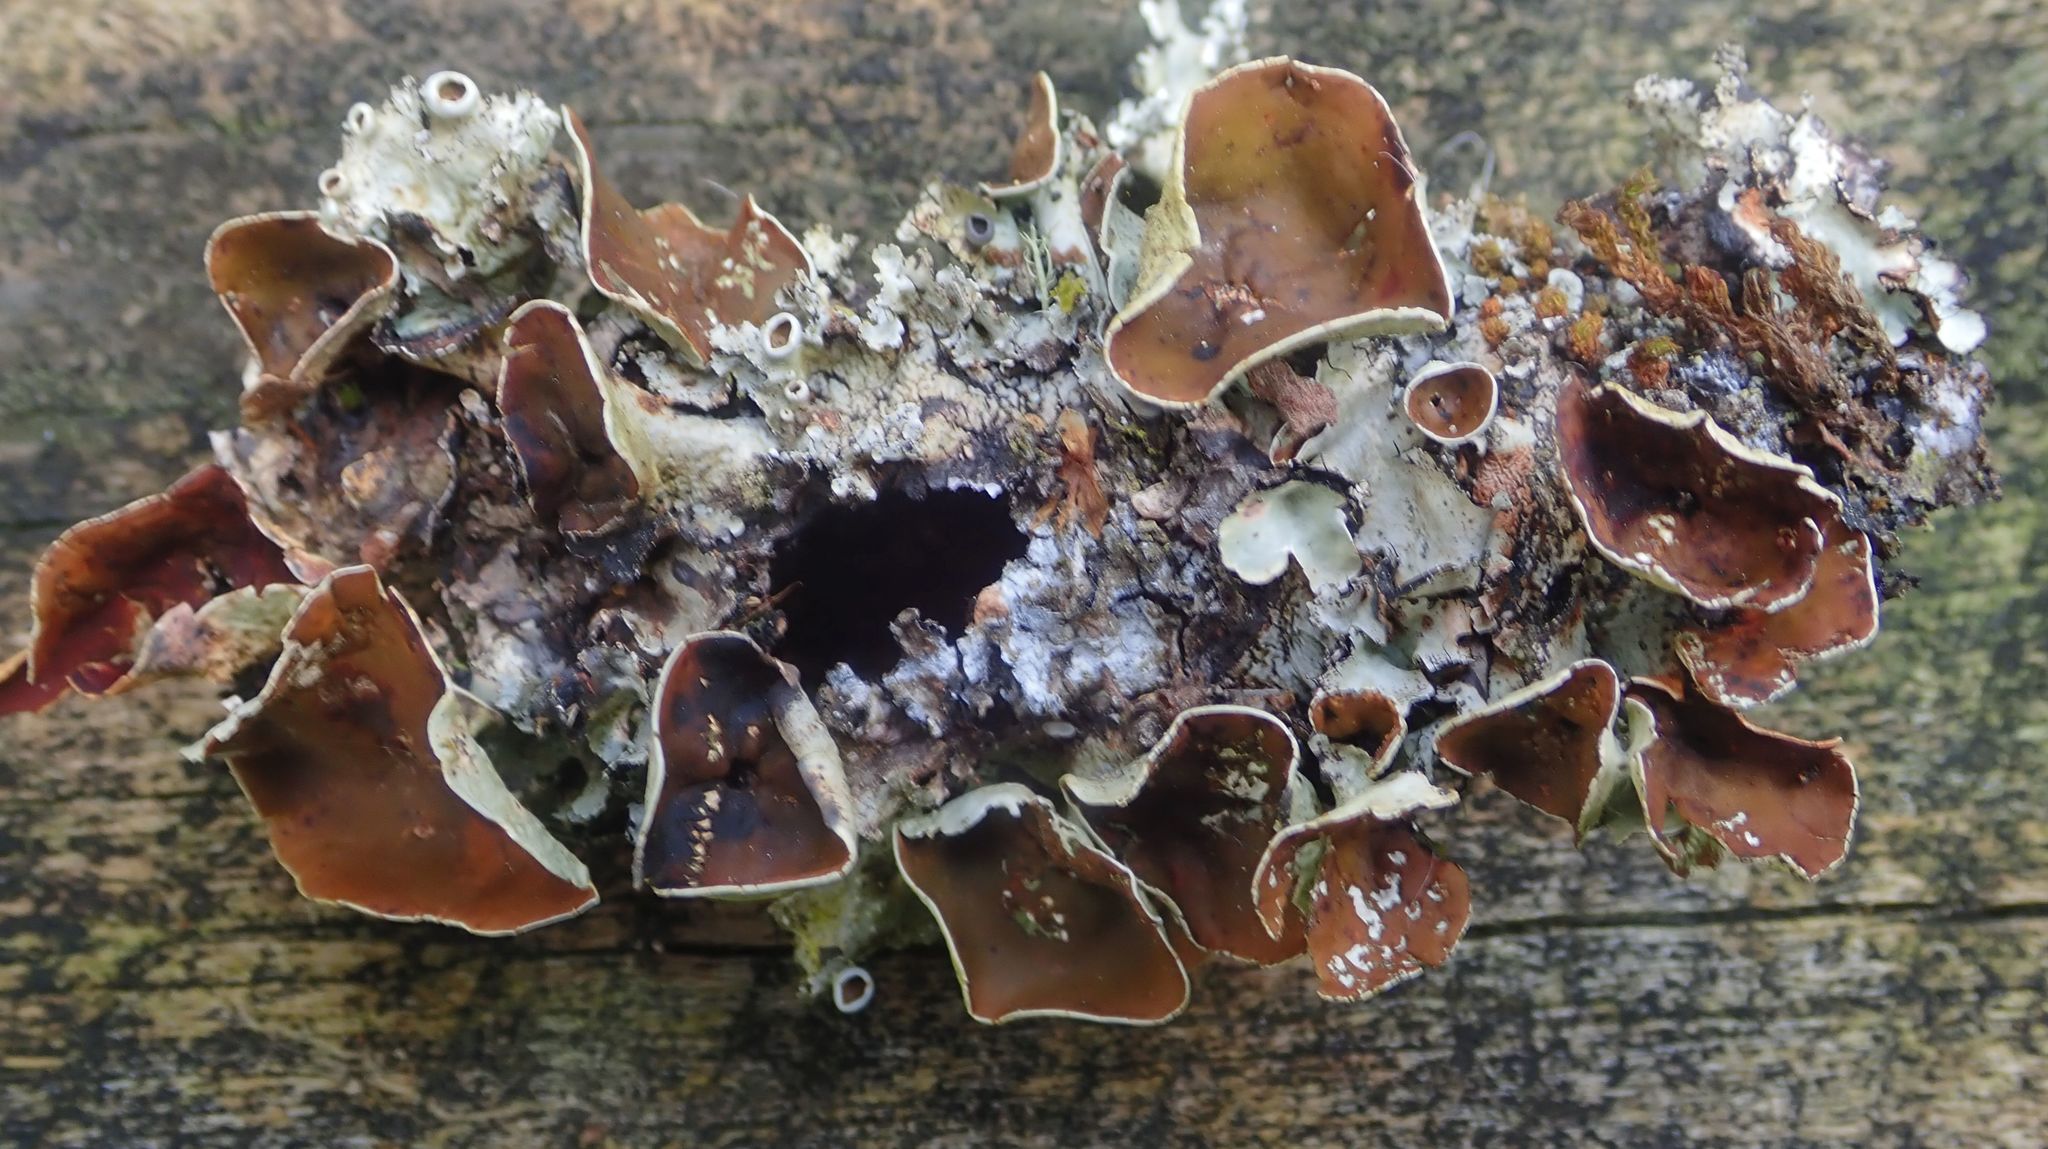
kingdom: Fungi
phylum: Ascomycota
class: Lecanoromycetes
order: Lecanorales
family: Parmeliaceae
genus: Parmotrema
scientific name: Parmotrema reparatum
